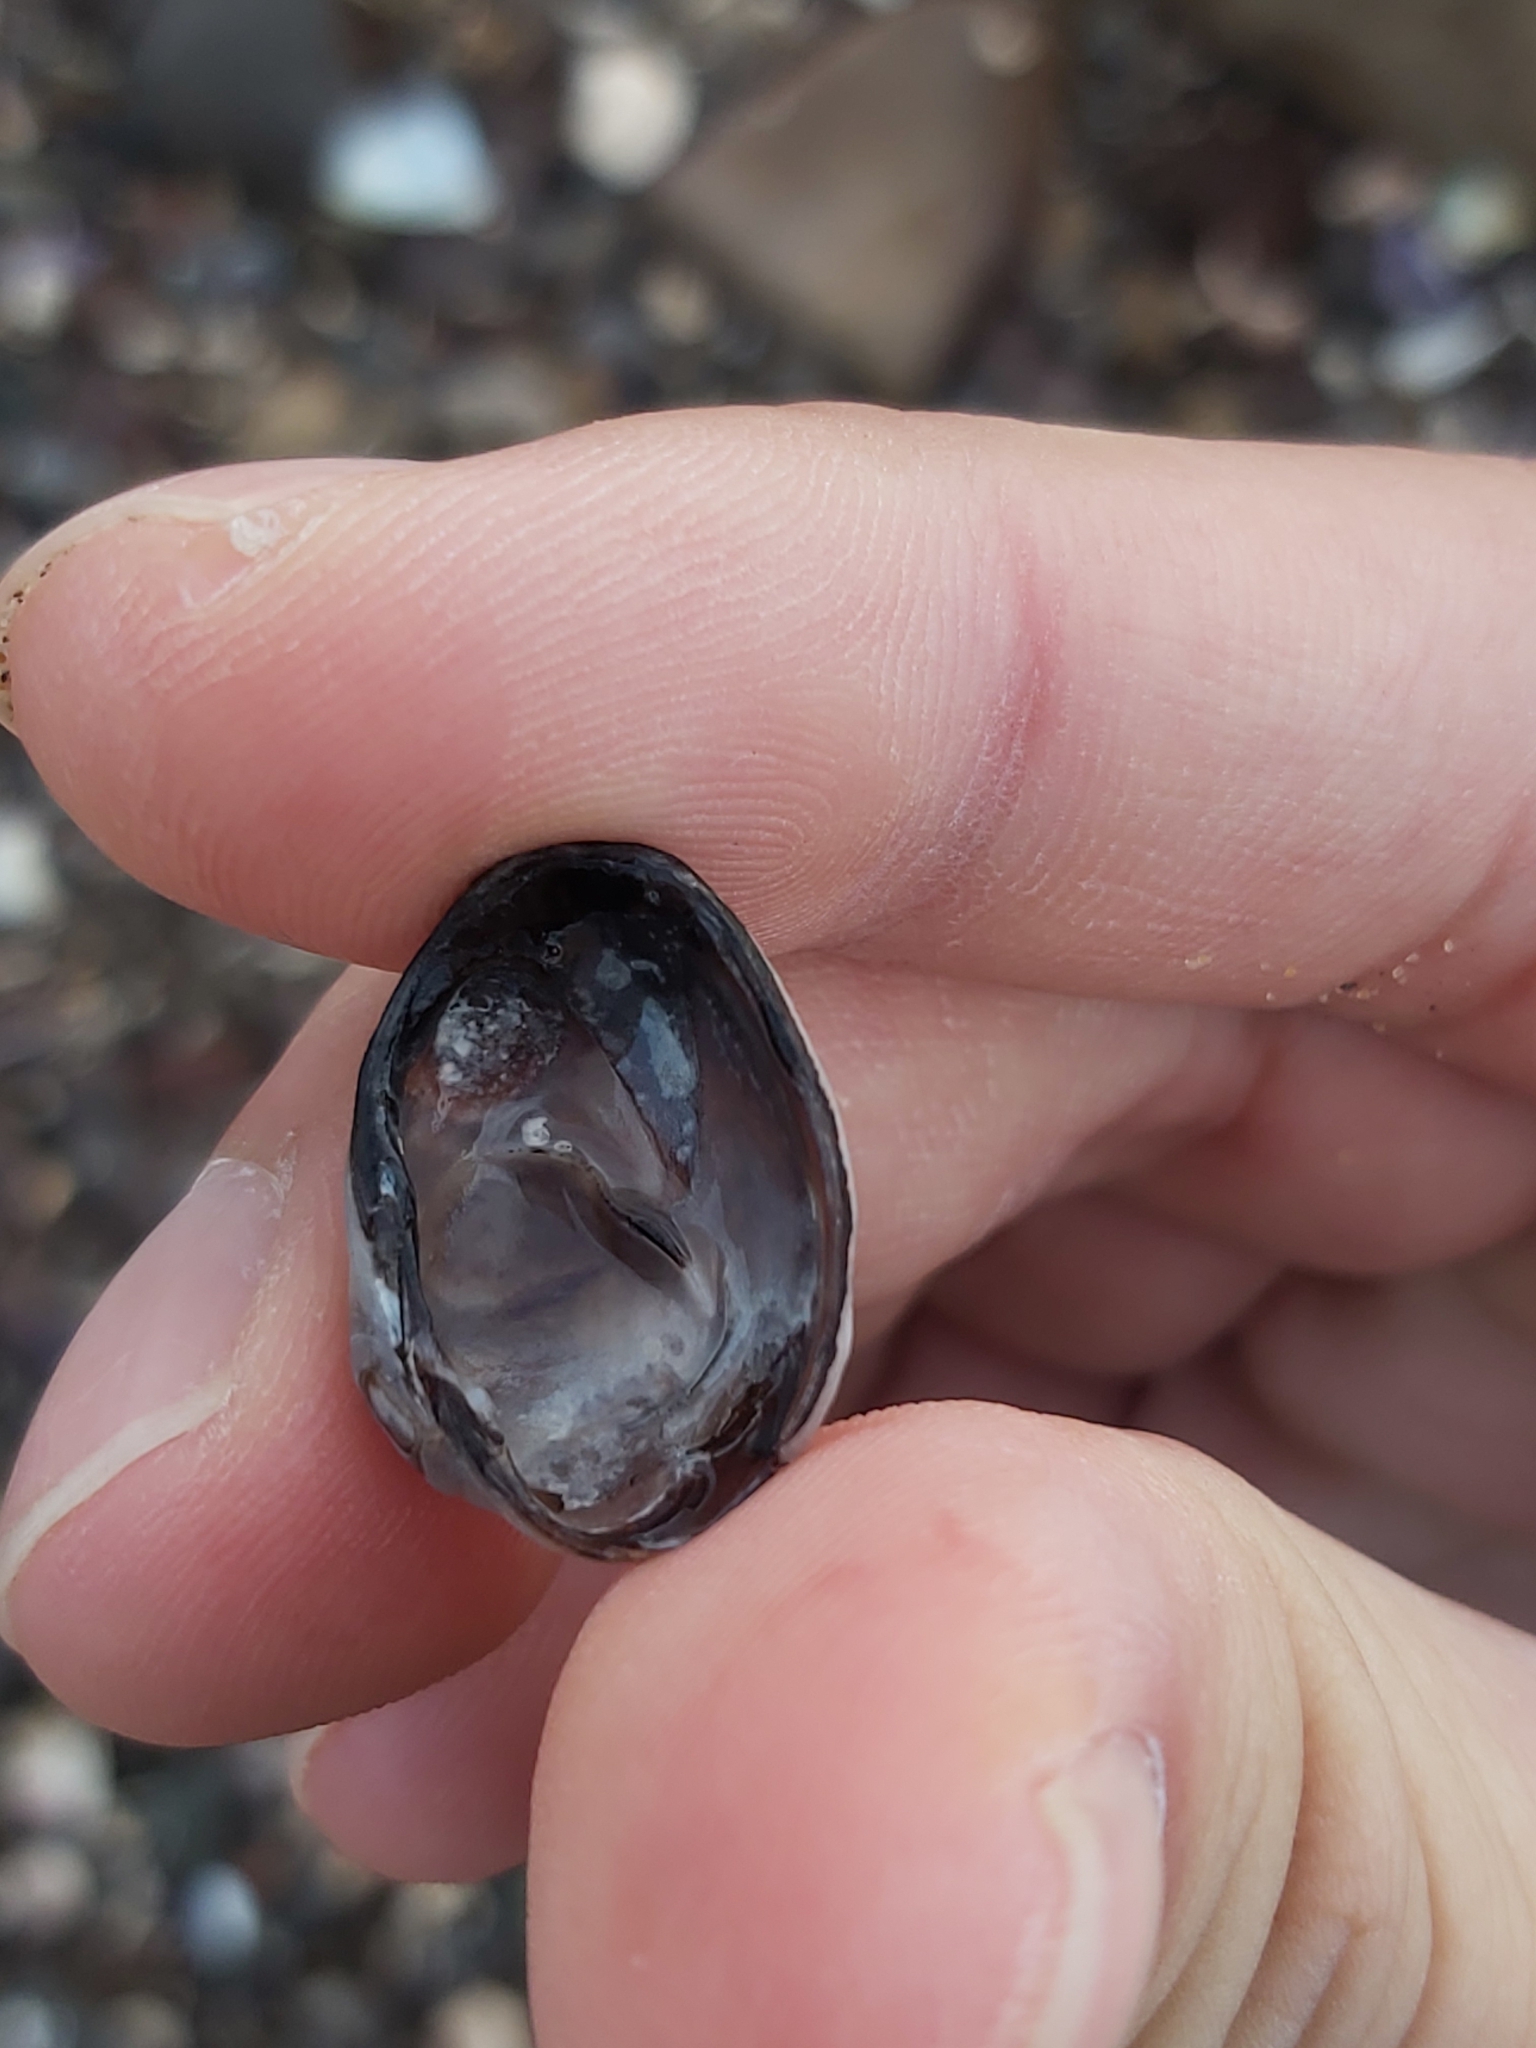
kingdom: Animalia
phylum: Mollusca
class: Bivalvia
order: Venerida
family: Veneridae
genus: Irus
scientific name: Irus cumingii
